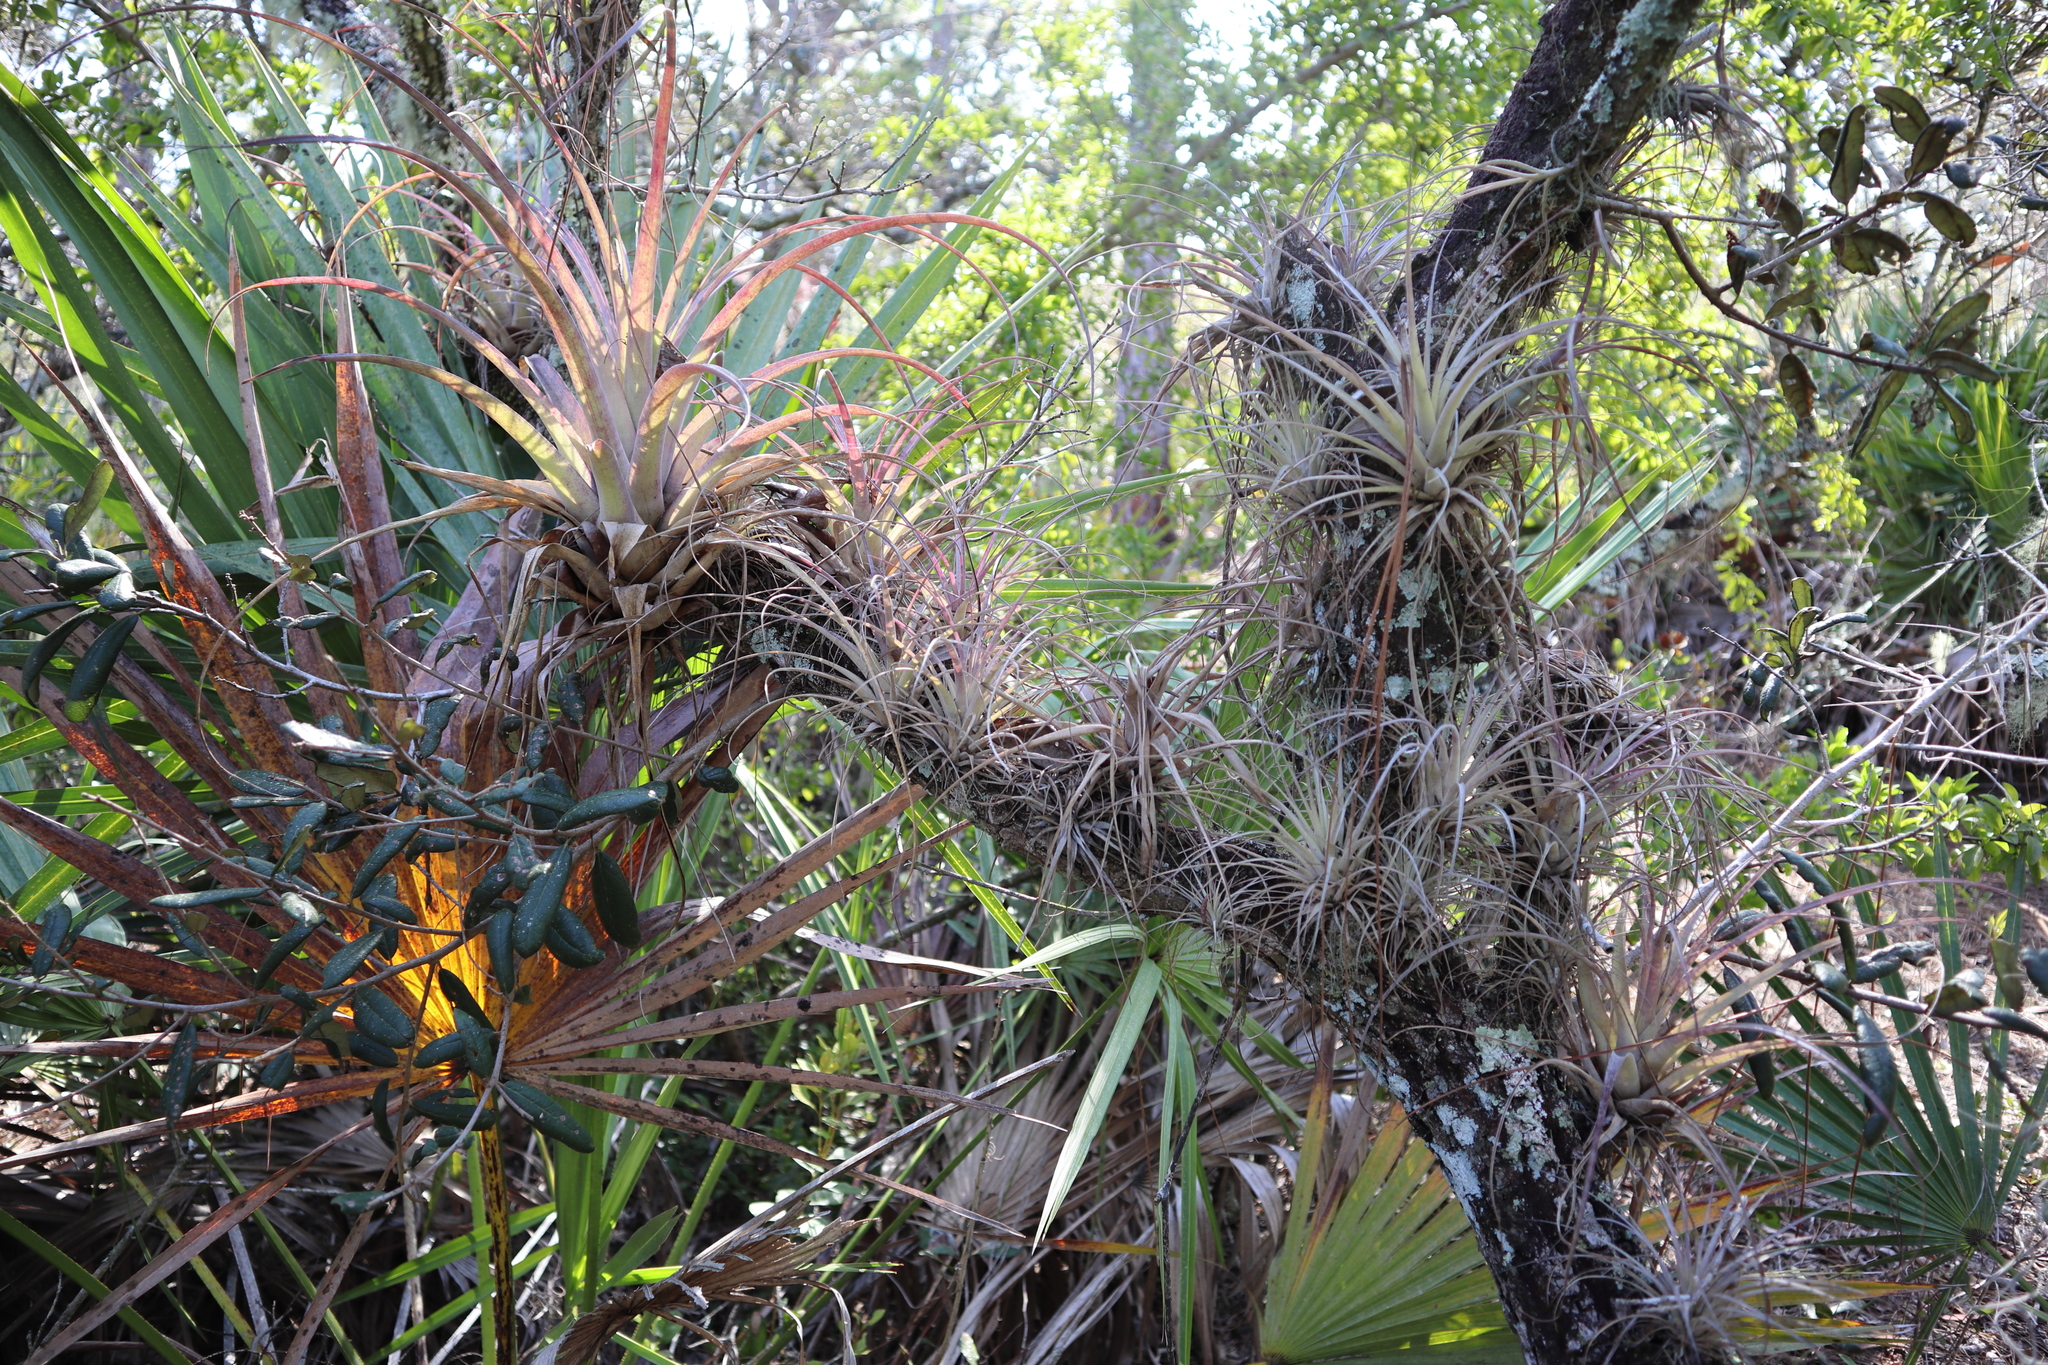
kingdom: Plantae
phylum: Tracheophyta
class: Liliopsida
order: Poales
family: Bromeliaceae
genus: Tillandsia
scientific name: Tillandsia utriculata
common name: Wild pine
